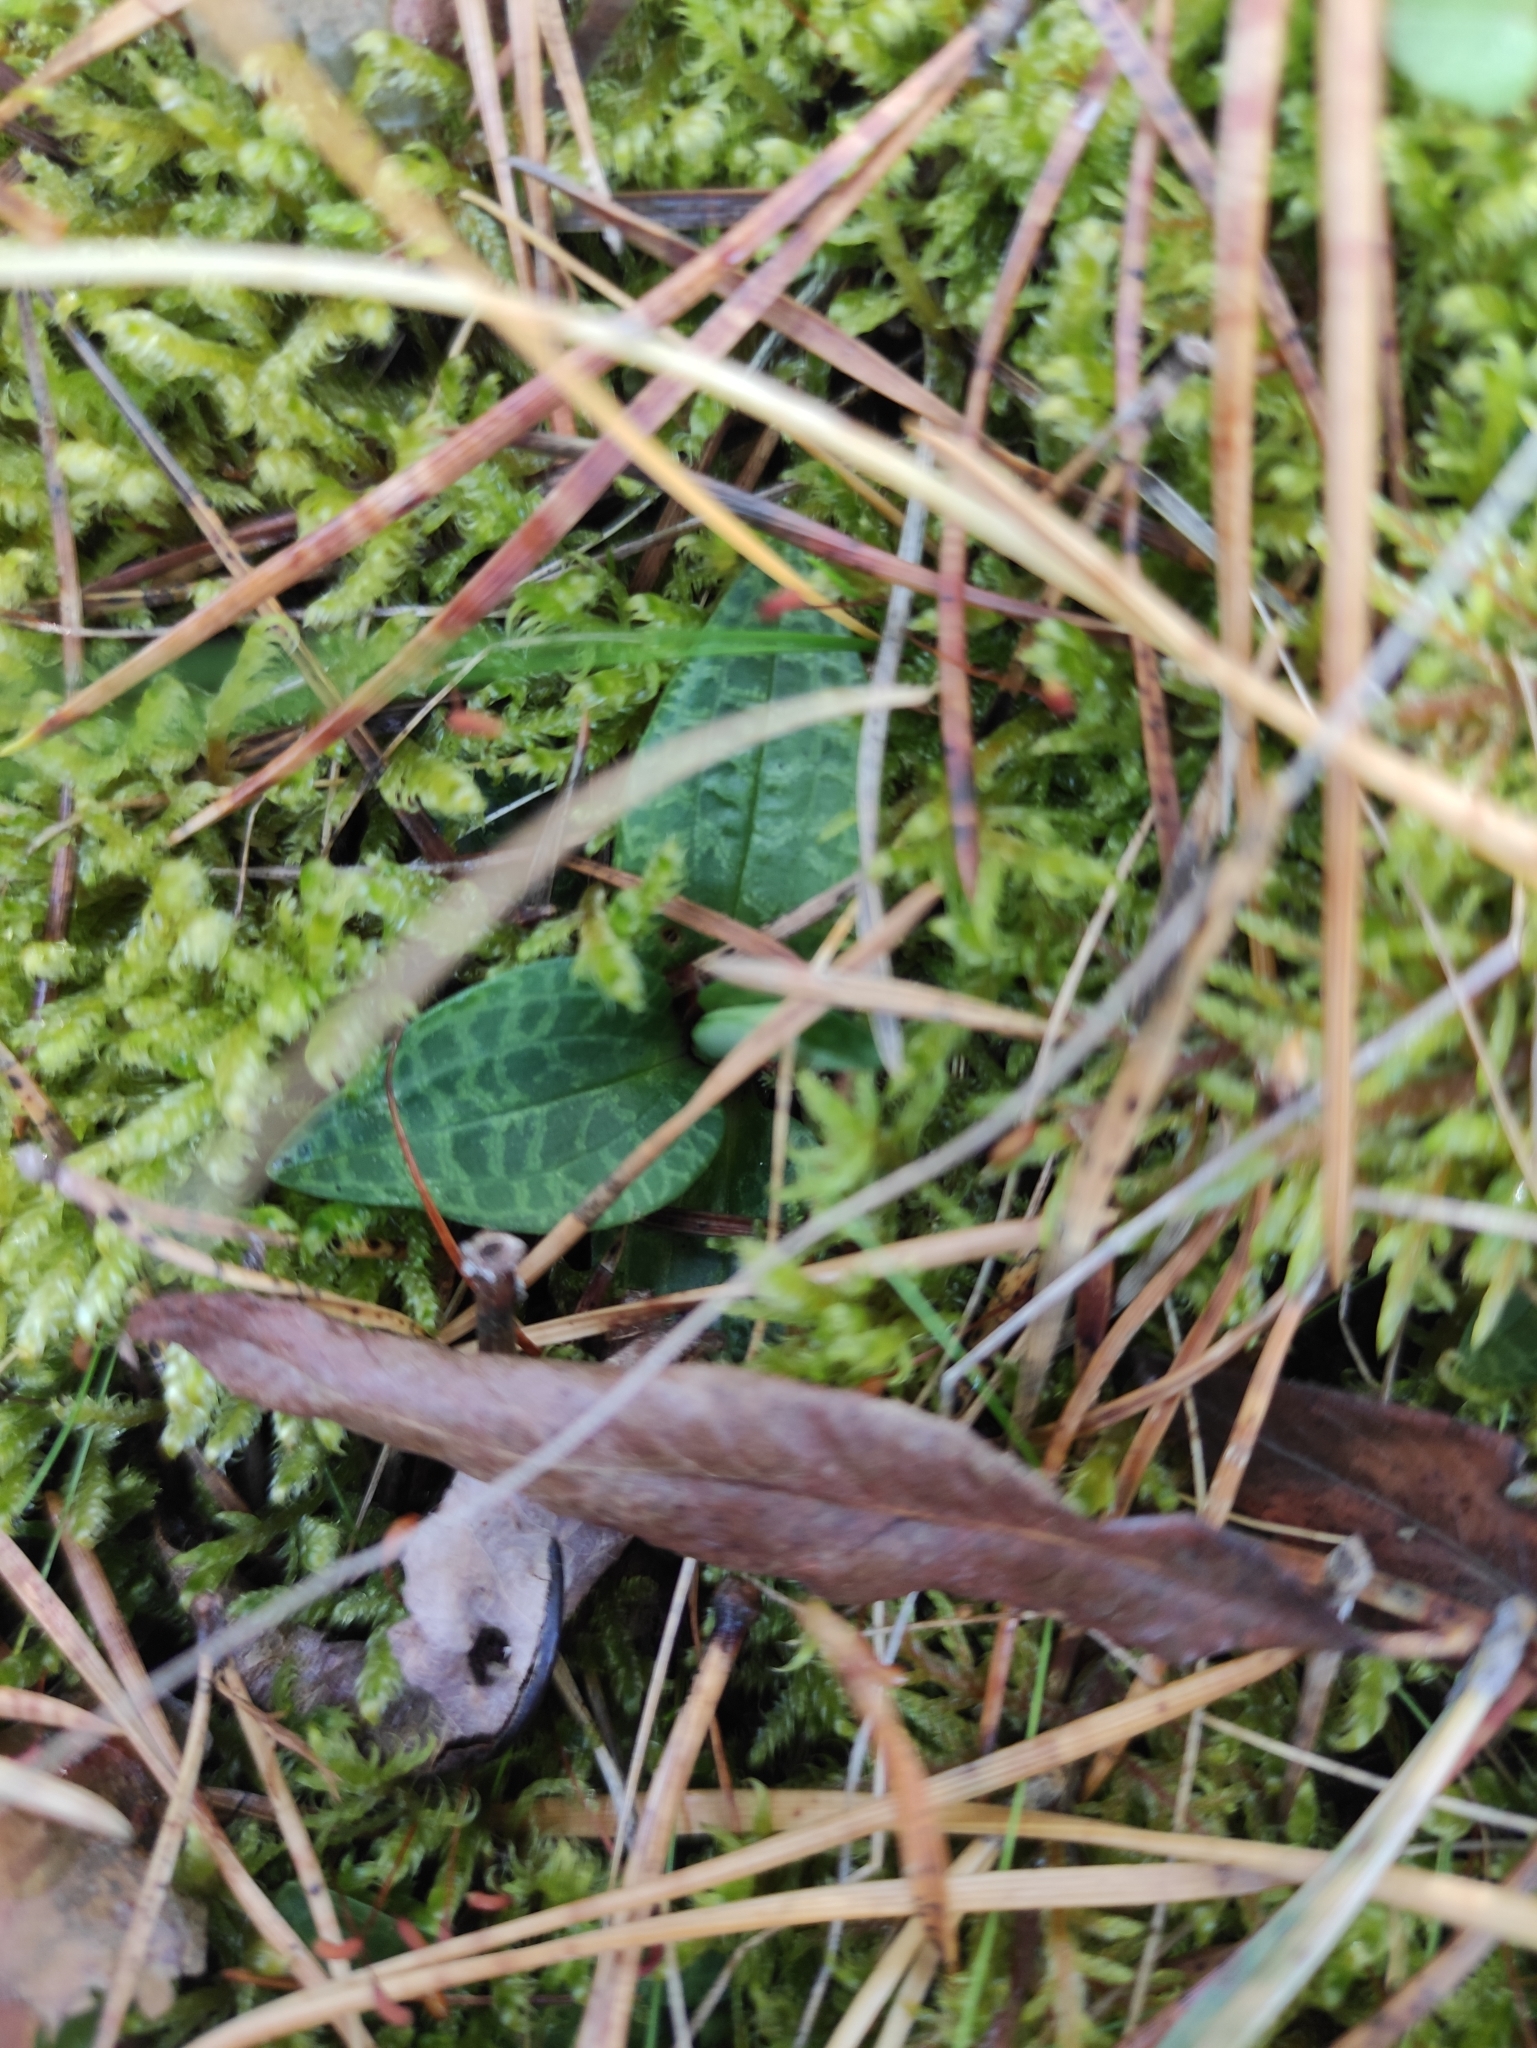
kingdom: Plantae
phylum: Tracheophyta
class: Liliopsida
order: Asparagales
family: Orchidaceae
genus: Goodyera
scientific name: Goodyera repens
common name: Creeping lady's-tresses
